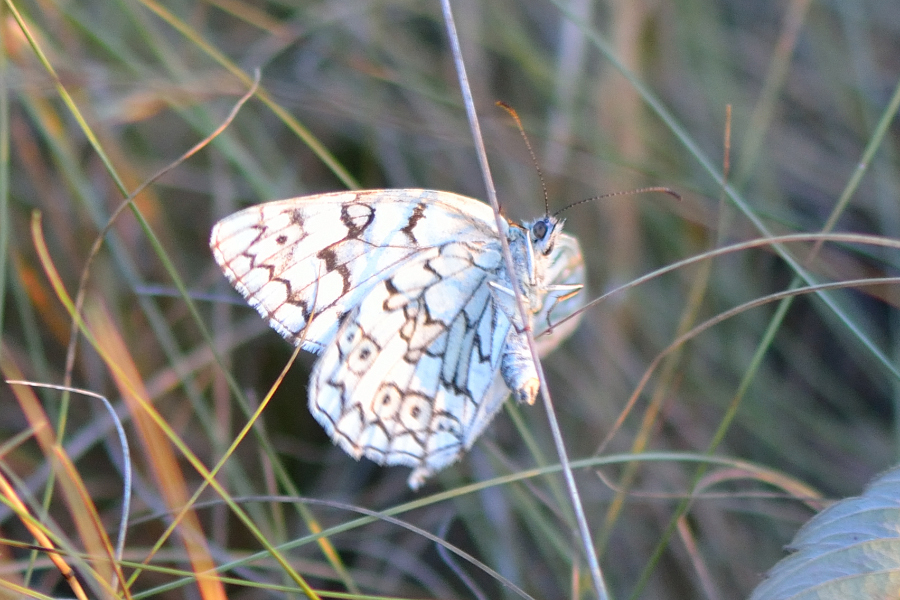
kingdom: Animalia
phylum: Arthropoda
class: Insecta
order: Lepidoptera
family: Nymphalidae
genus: Melanargia
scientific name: Melanargia japygia
